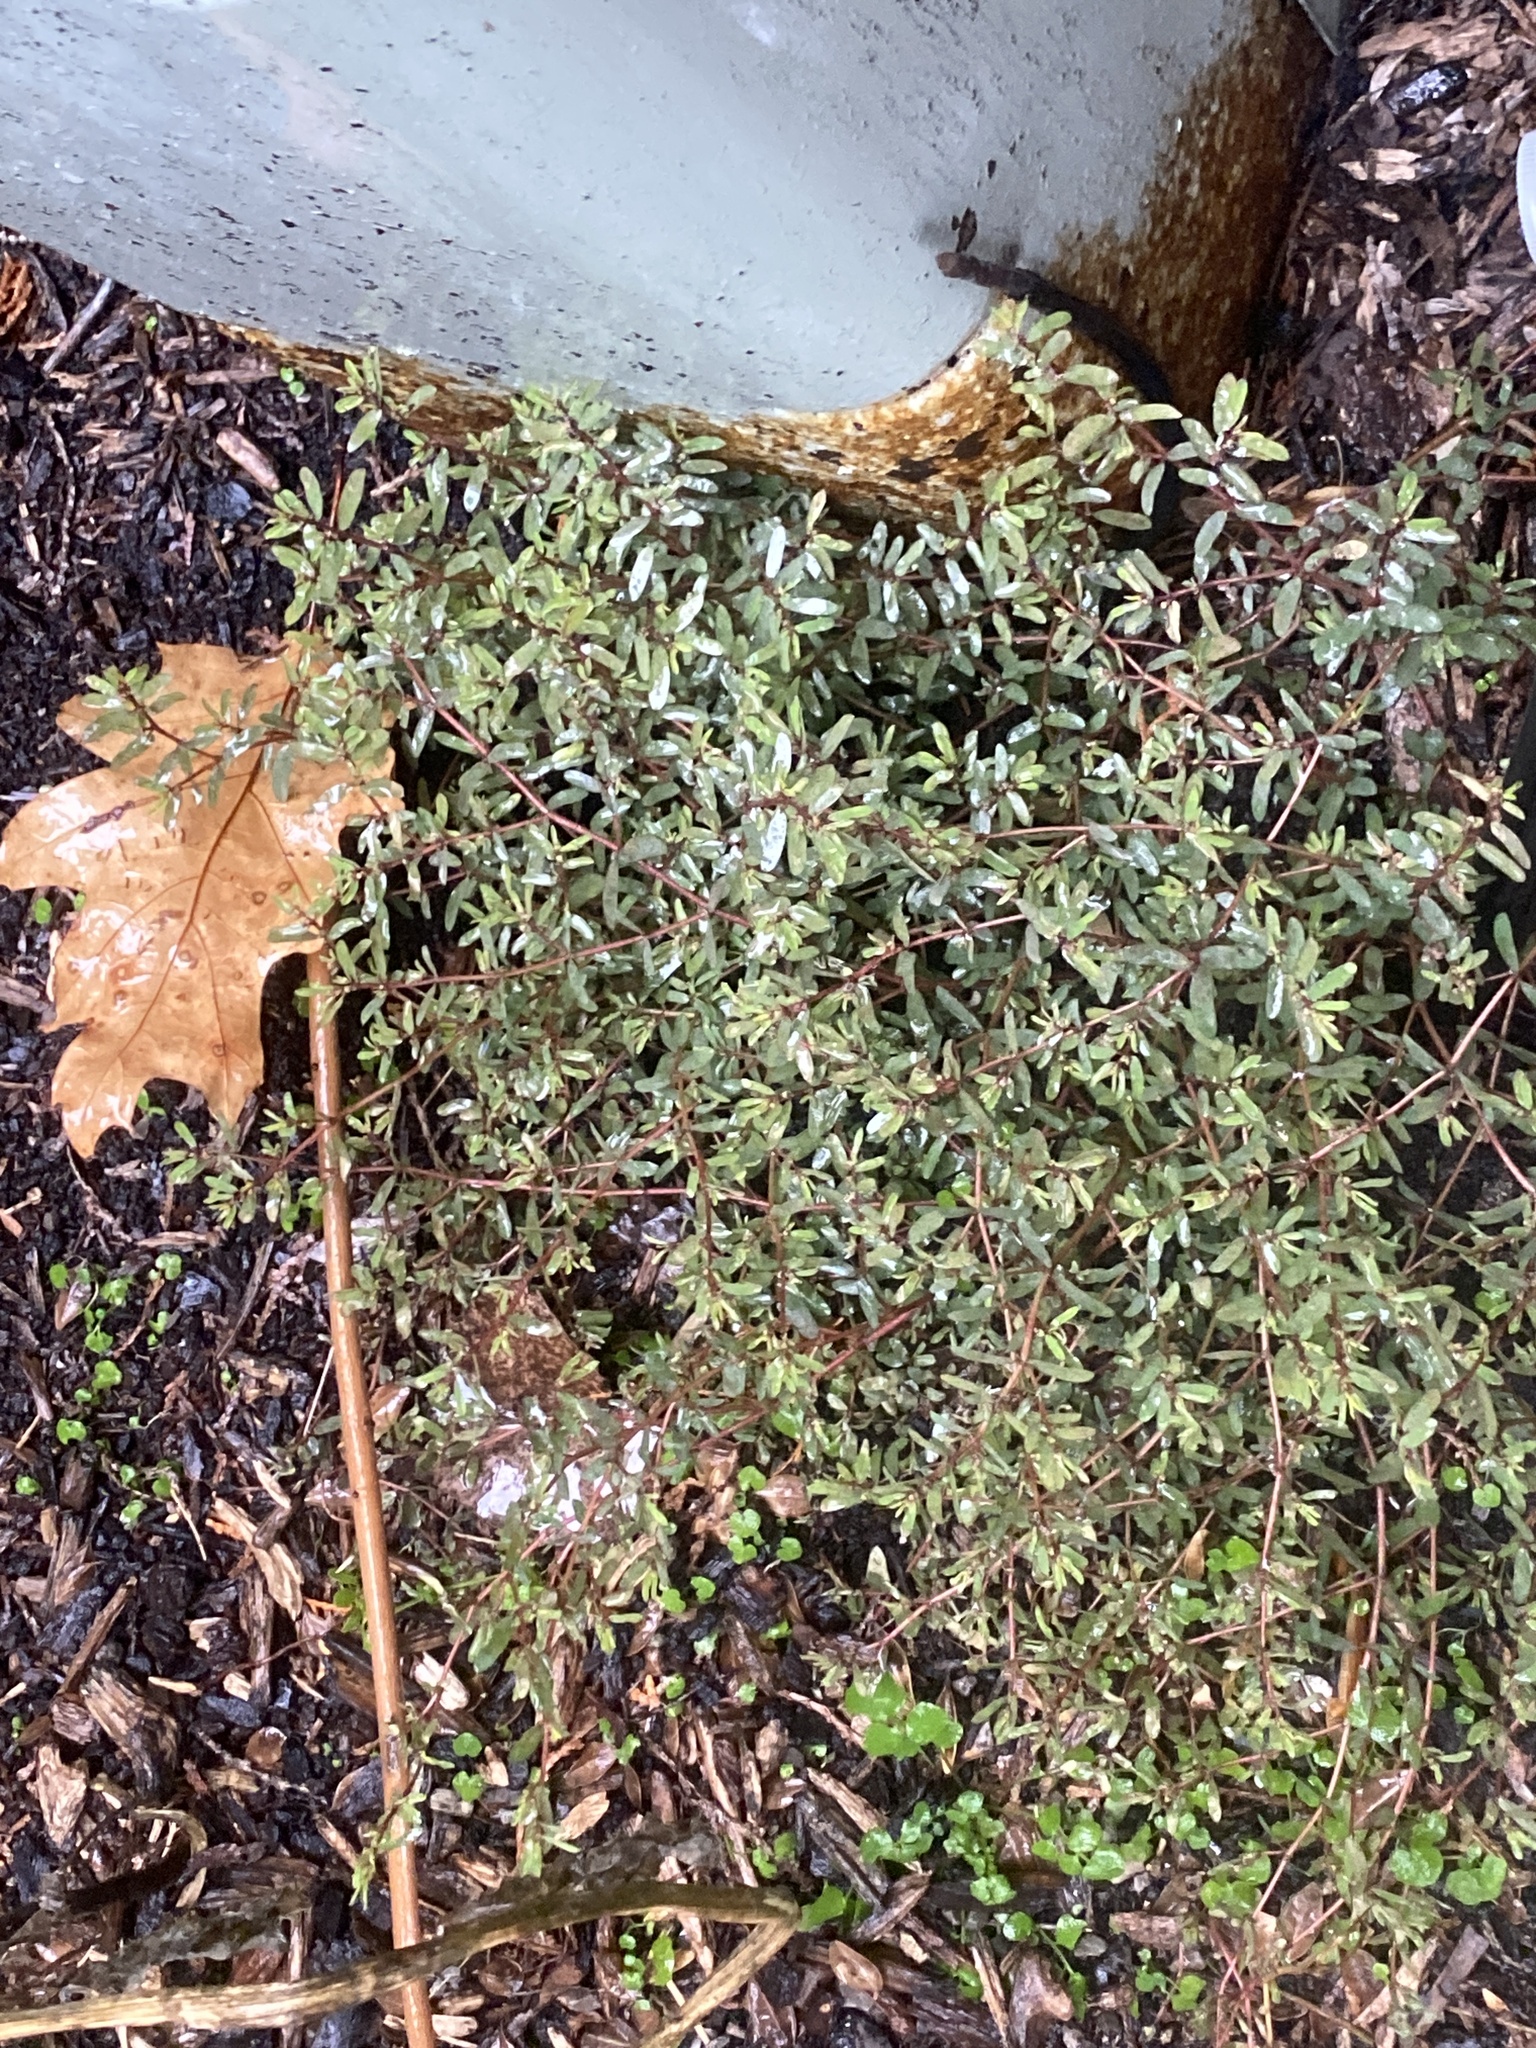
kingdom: Plantae
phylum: Tracheophyta
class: Magnoliopsida
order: Malpighiales
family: Euphorbiaceae
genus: Euphorbia
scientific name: Euphorbia maculata
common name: Spotted spurge
